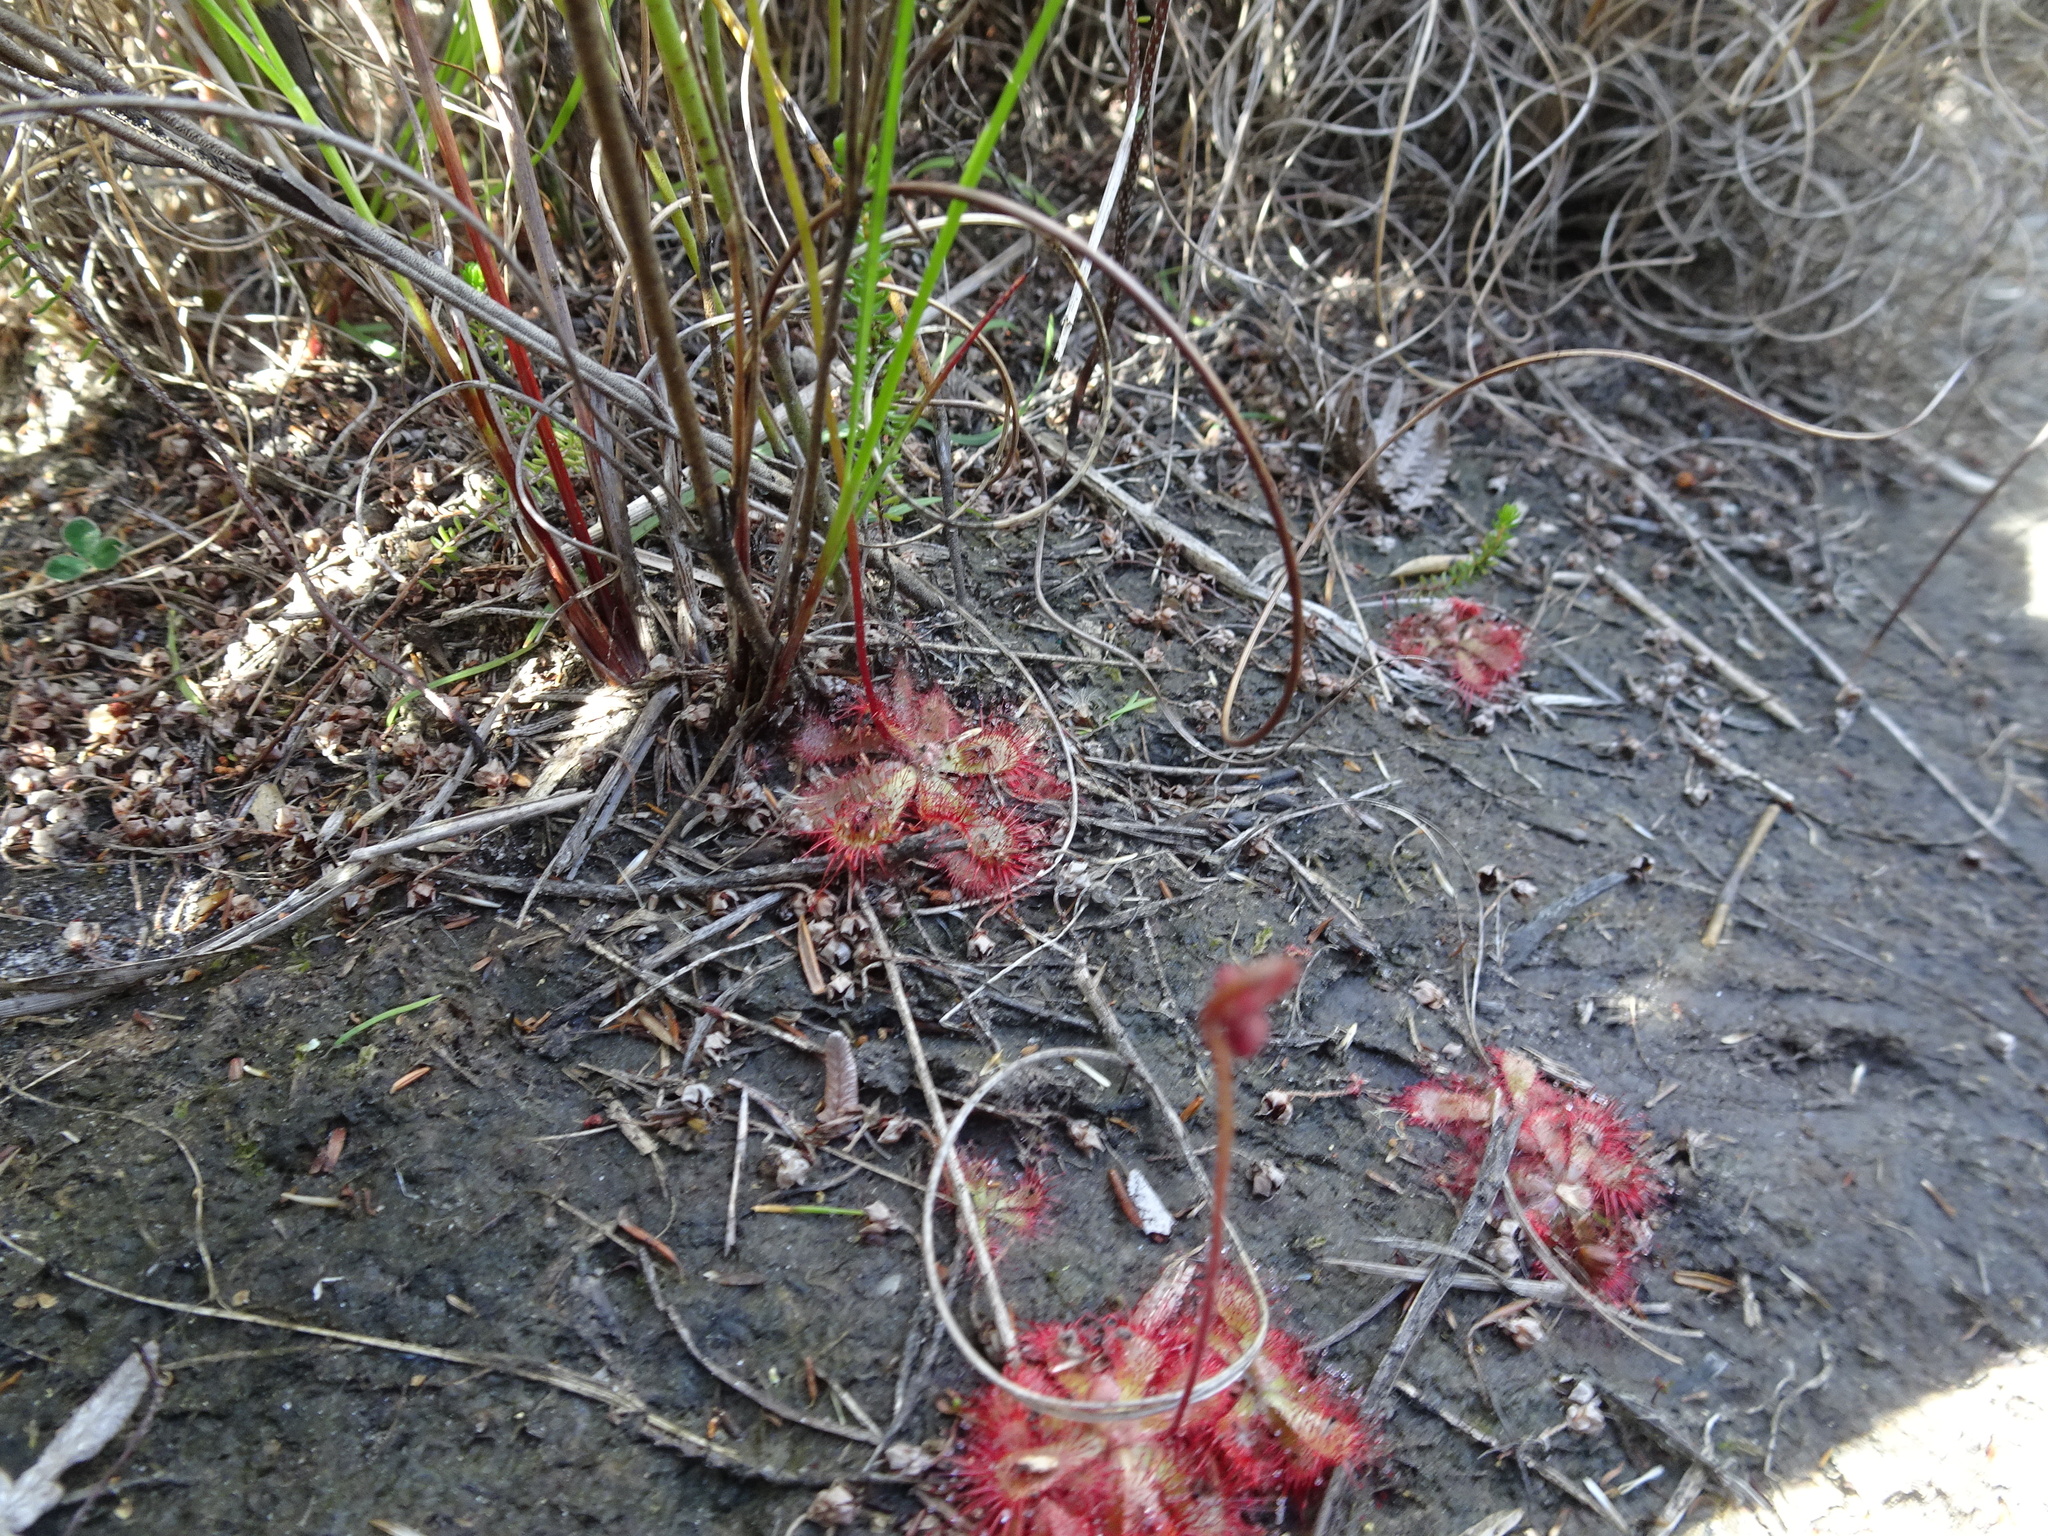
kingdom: Plantae
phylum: Tracheophyta
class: Magnoliopsida
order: Caryophyllales
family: Droseraceae
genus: Drosera
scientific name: Drosera aliciae
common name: Alice sundew
